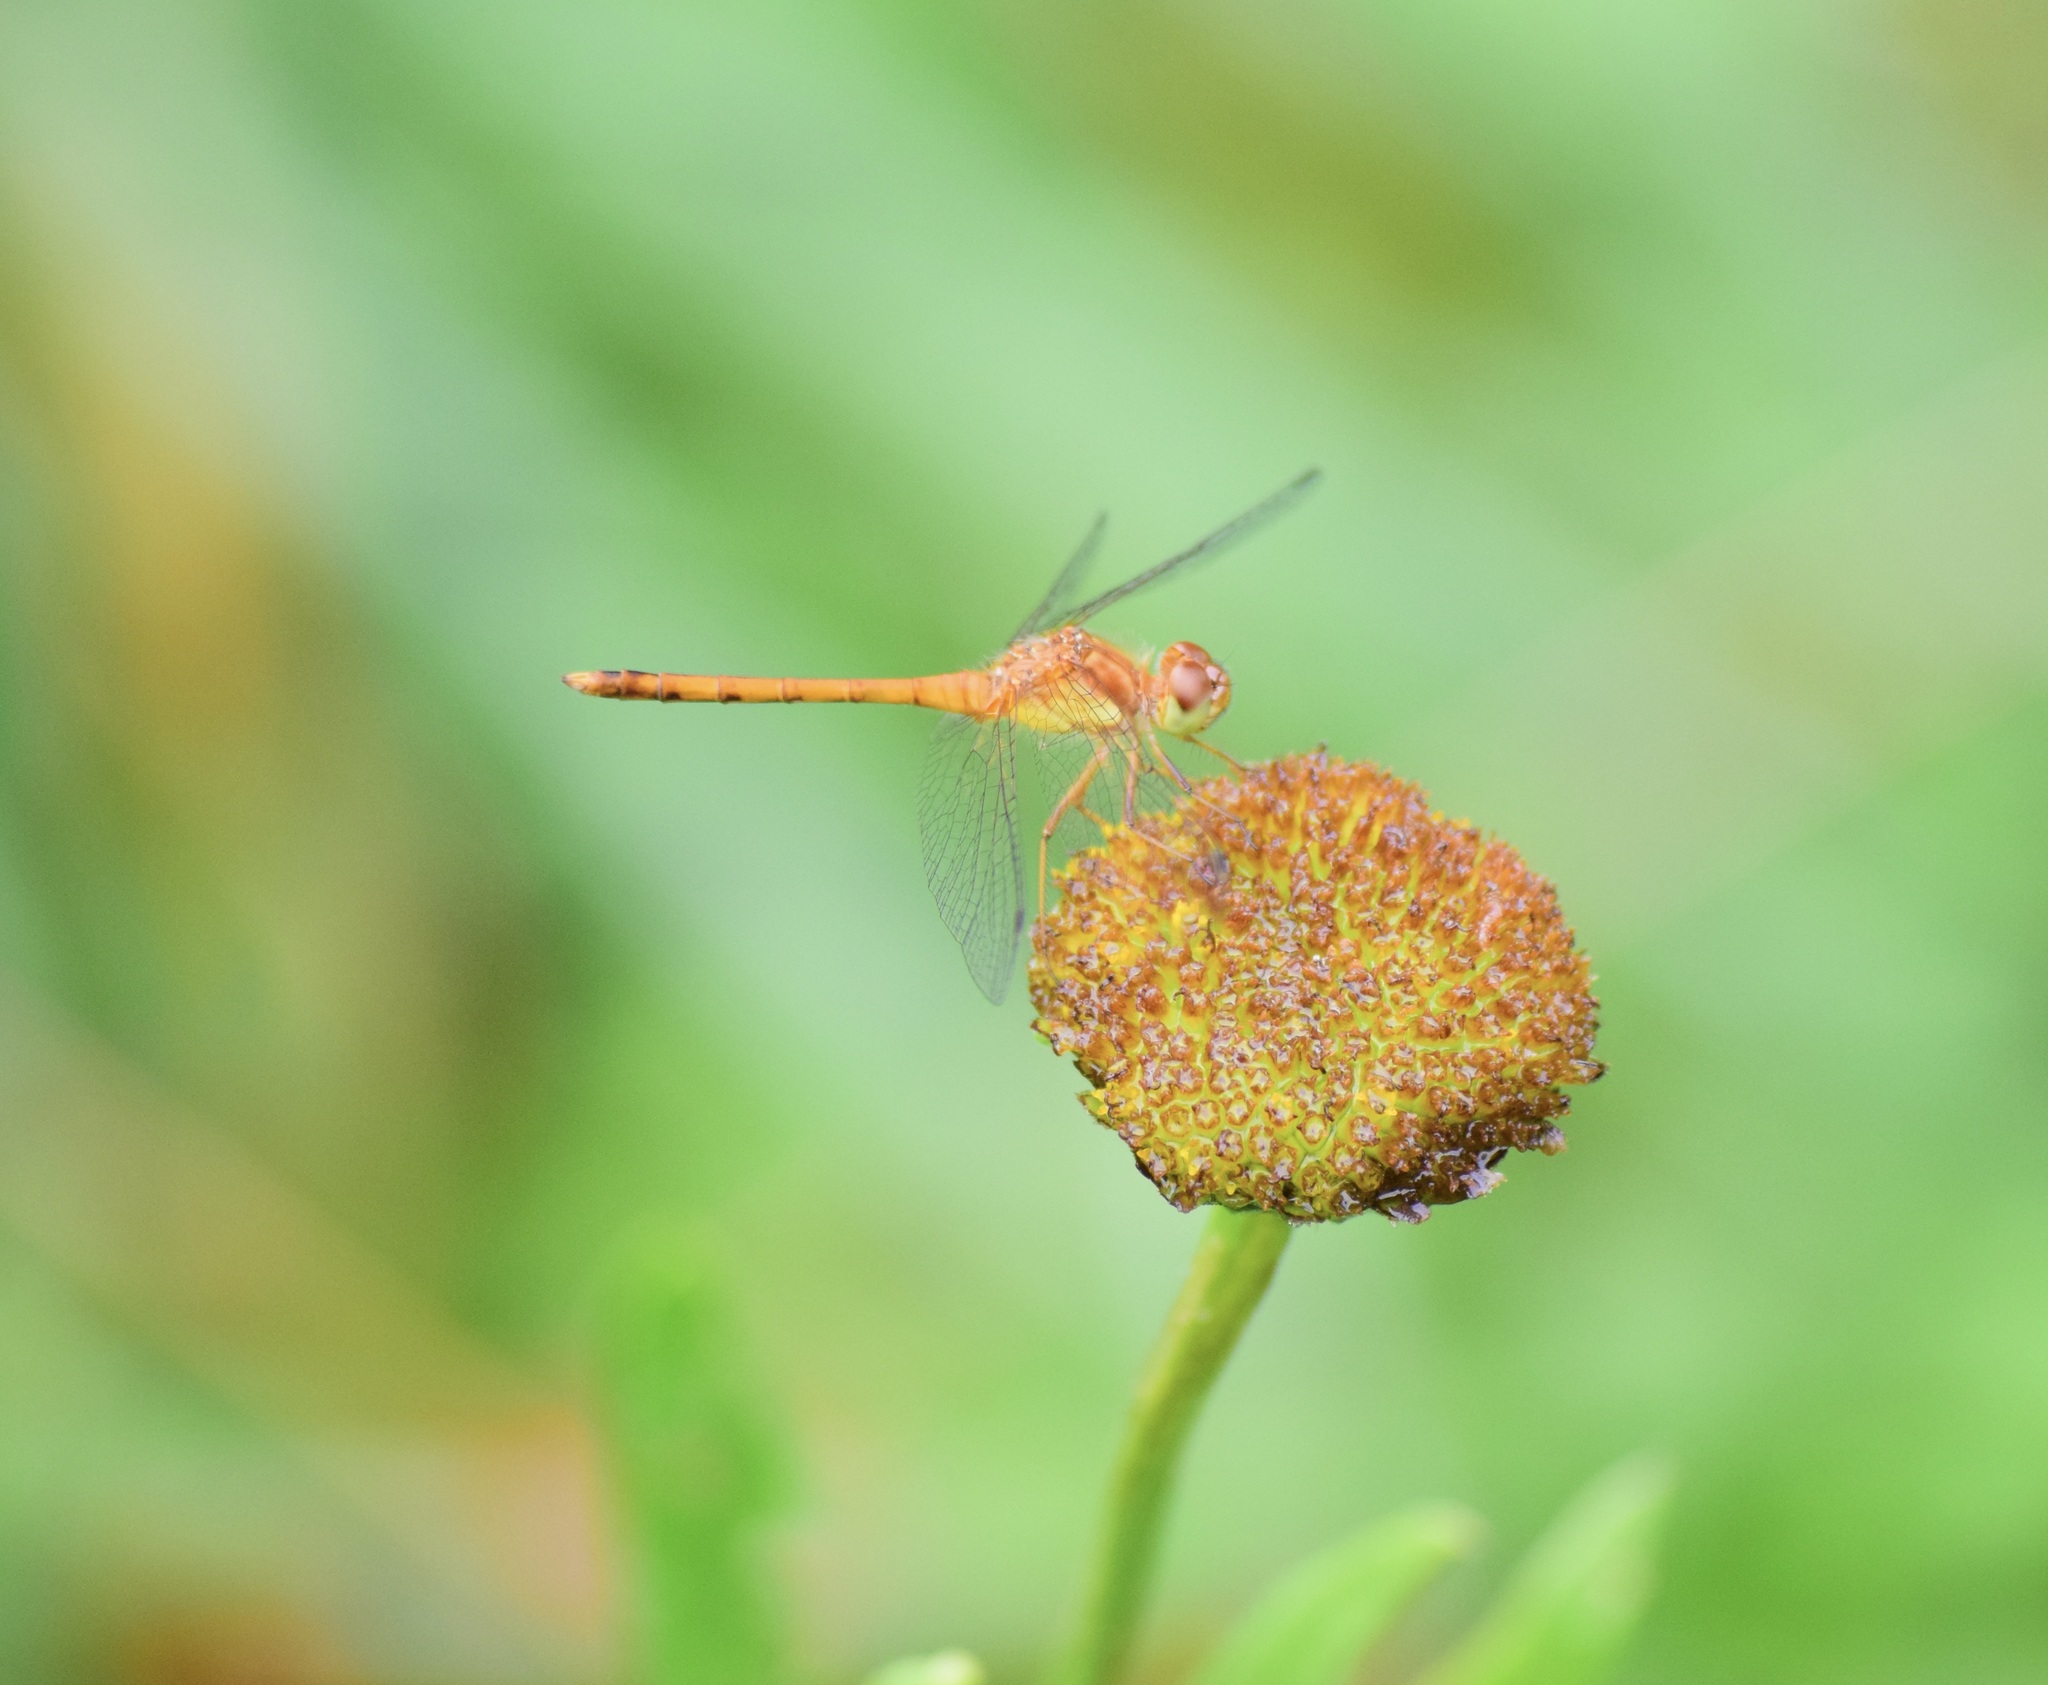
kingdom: Animalia
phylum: Arthropoda
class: Insecta
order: Odonata
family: Libellulidae
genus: Sympetrum
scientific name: Sympetrum vicinum
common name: Autumn meadowhawk
